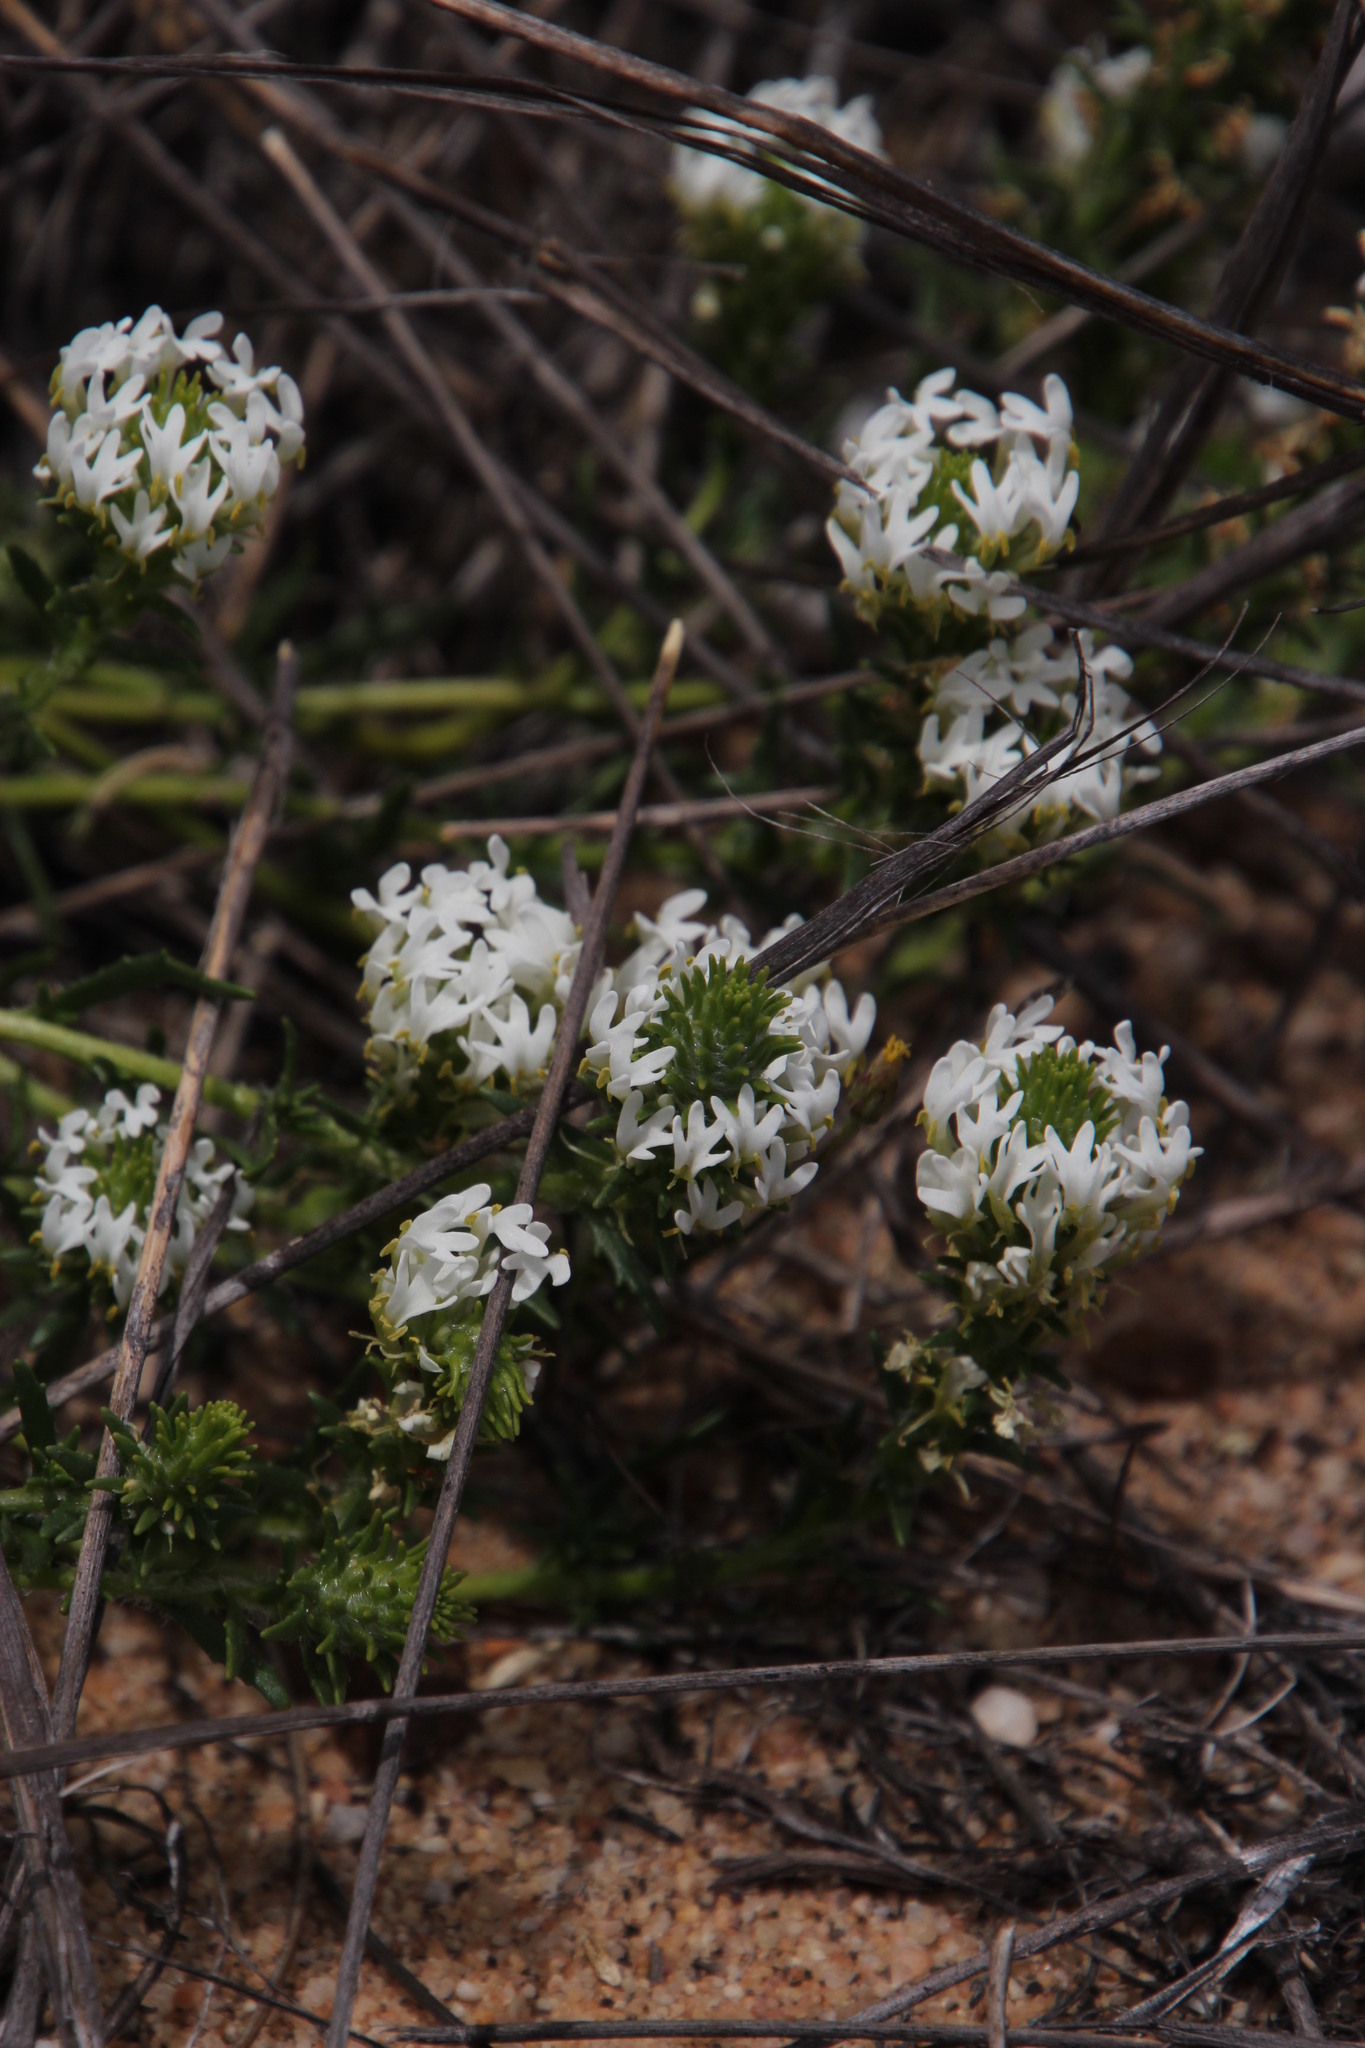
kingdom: Plantae
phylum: Tracheophyta
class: Magnoliopsida
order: Lamiales
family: Scrophulariaceae
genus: Hebenstretia
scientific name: Hebenstretia lanceolata
